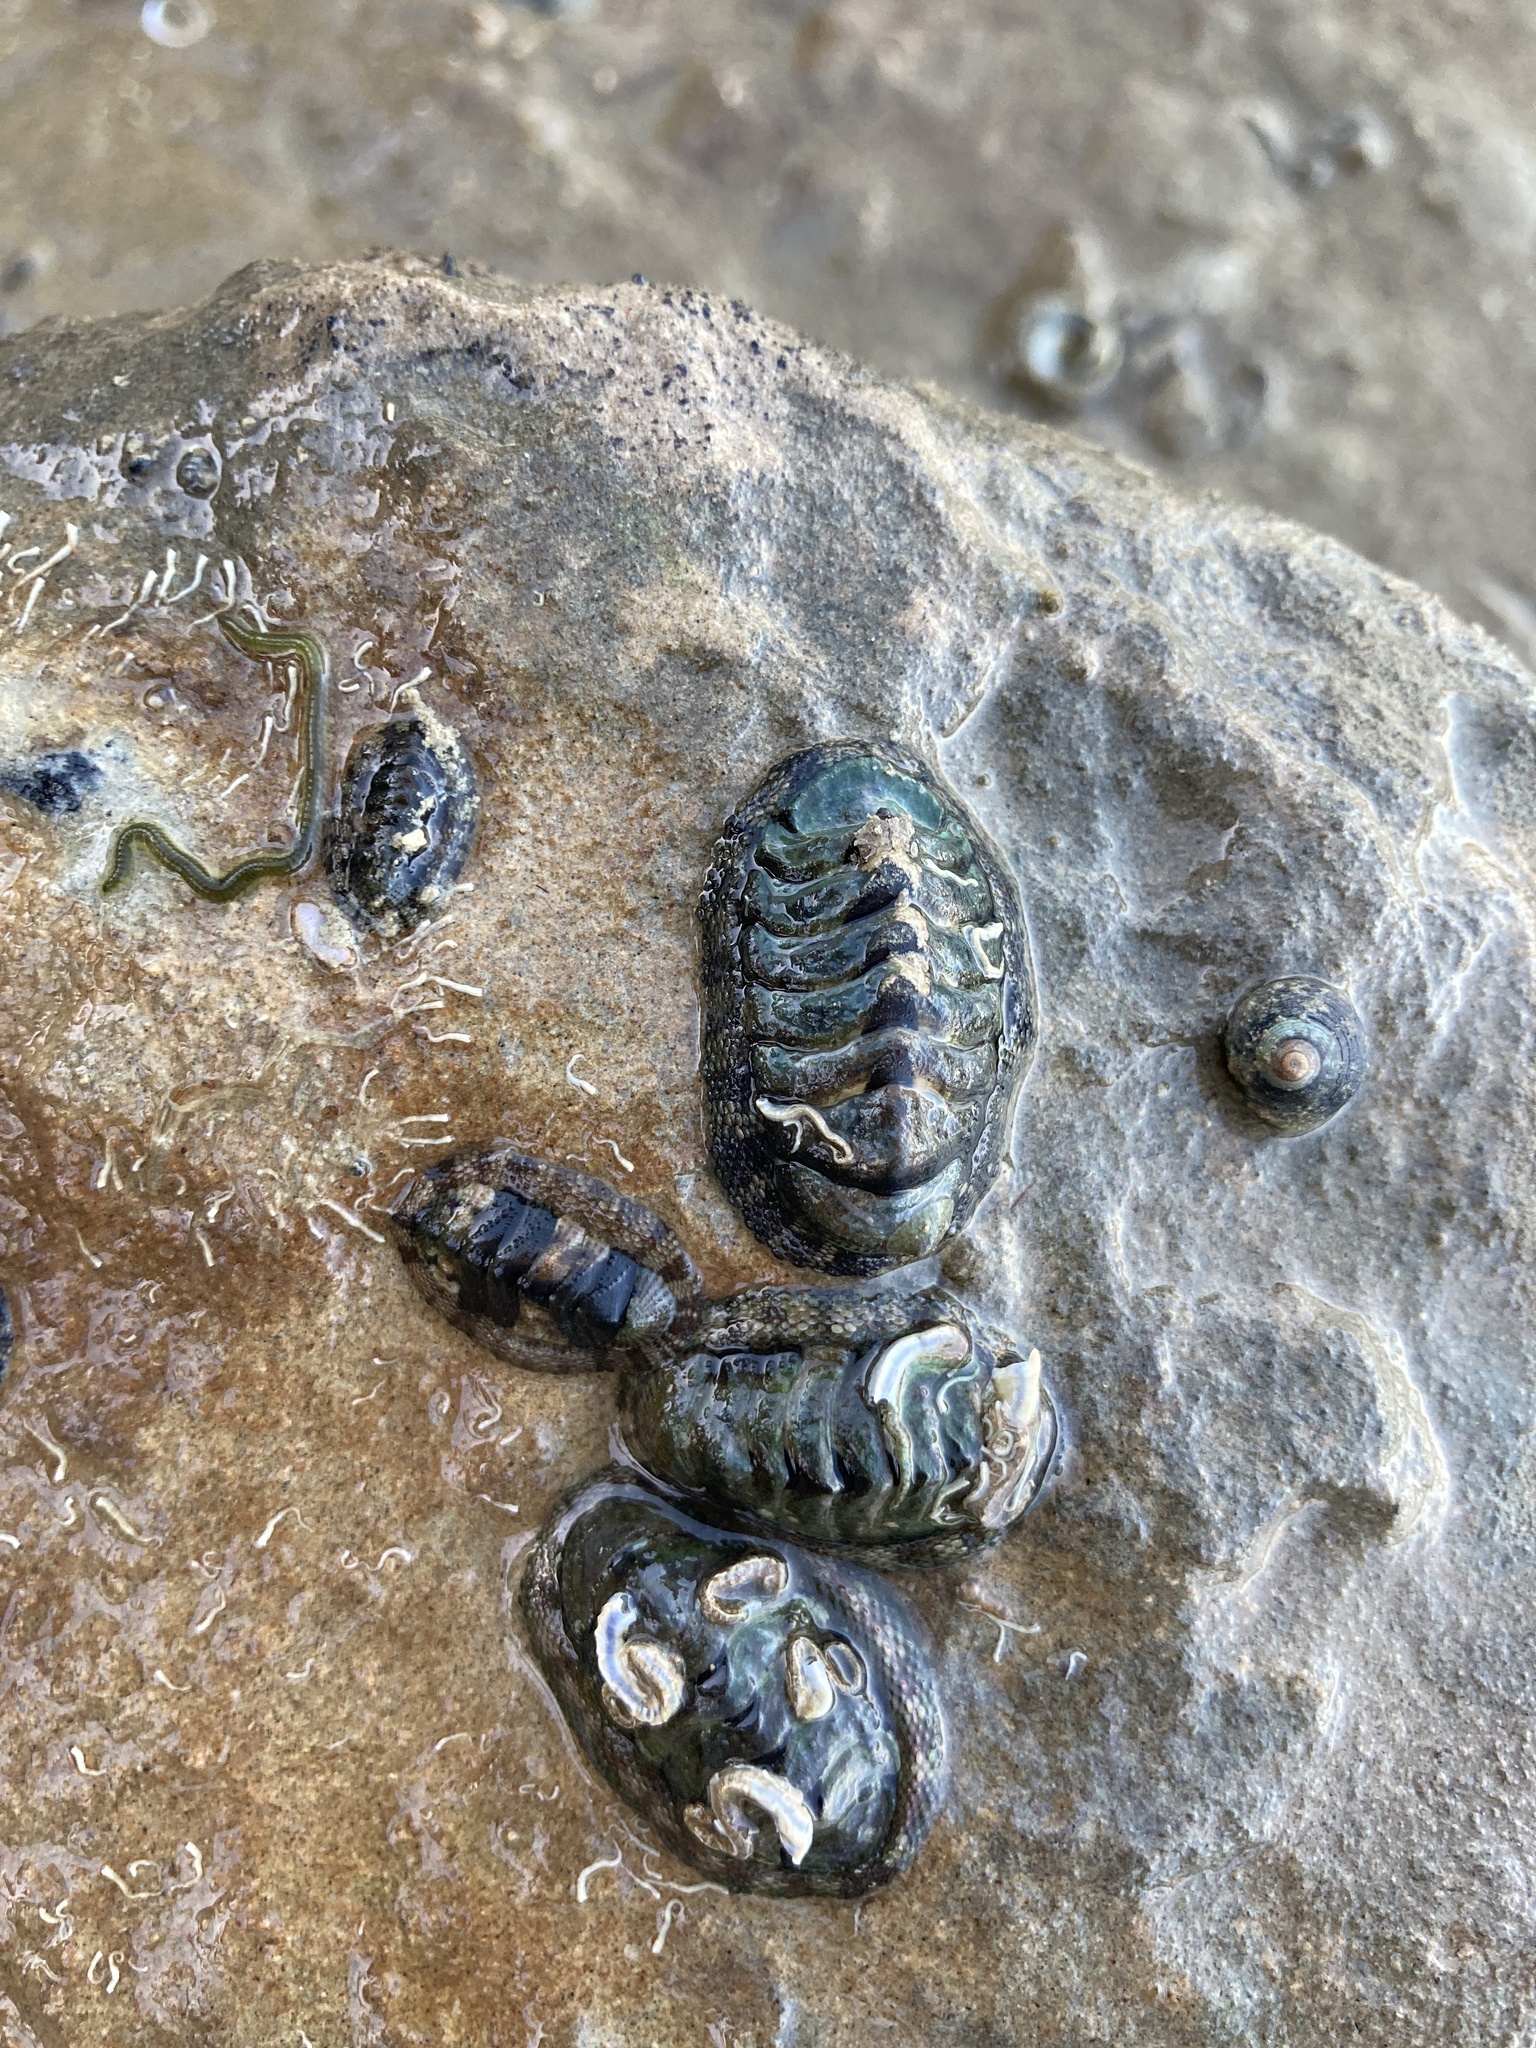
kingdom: Animalia
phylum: Mollusca
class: Polyplacophora
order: Chitonida
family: Chitonidae
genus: Sypharochiton
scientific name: Sypharochiton pelliserpentis
